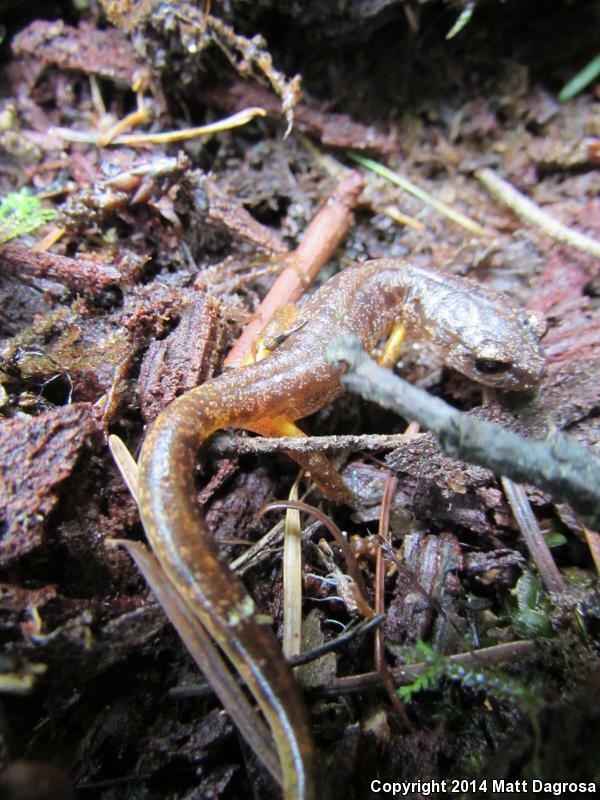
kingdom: Animalia
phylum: Chordata
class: Amphibia
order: Caudata
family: Plethodontidae
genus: Ensatina
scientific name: Ensatina eschscholtzii
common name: Ensatina
